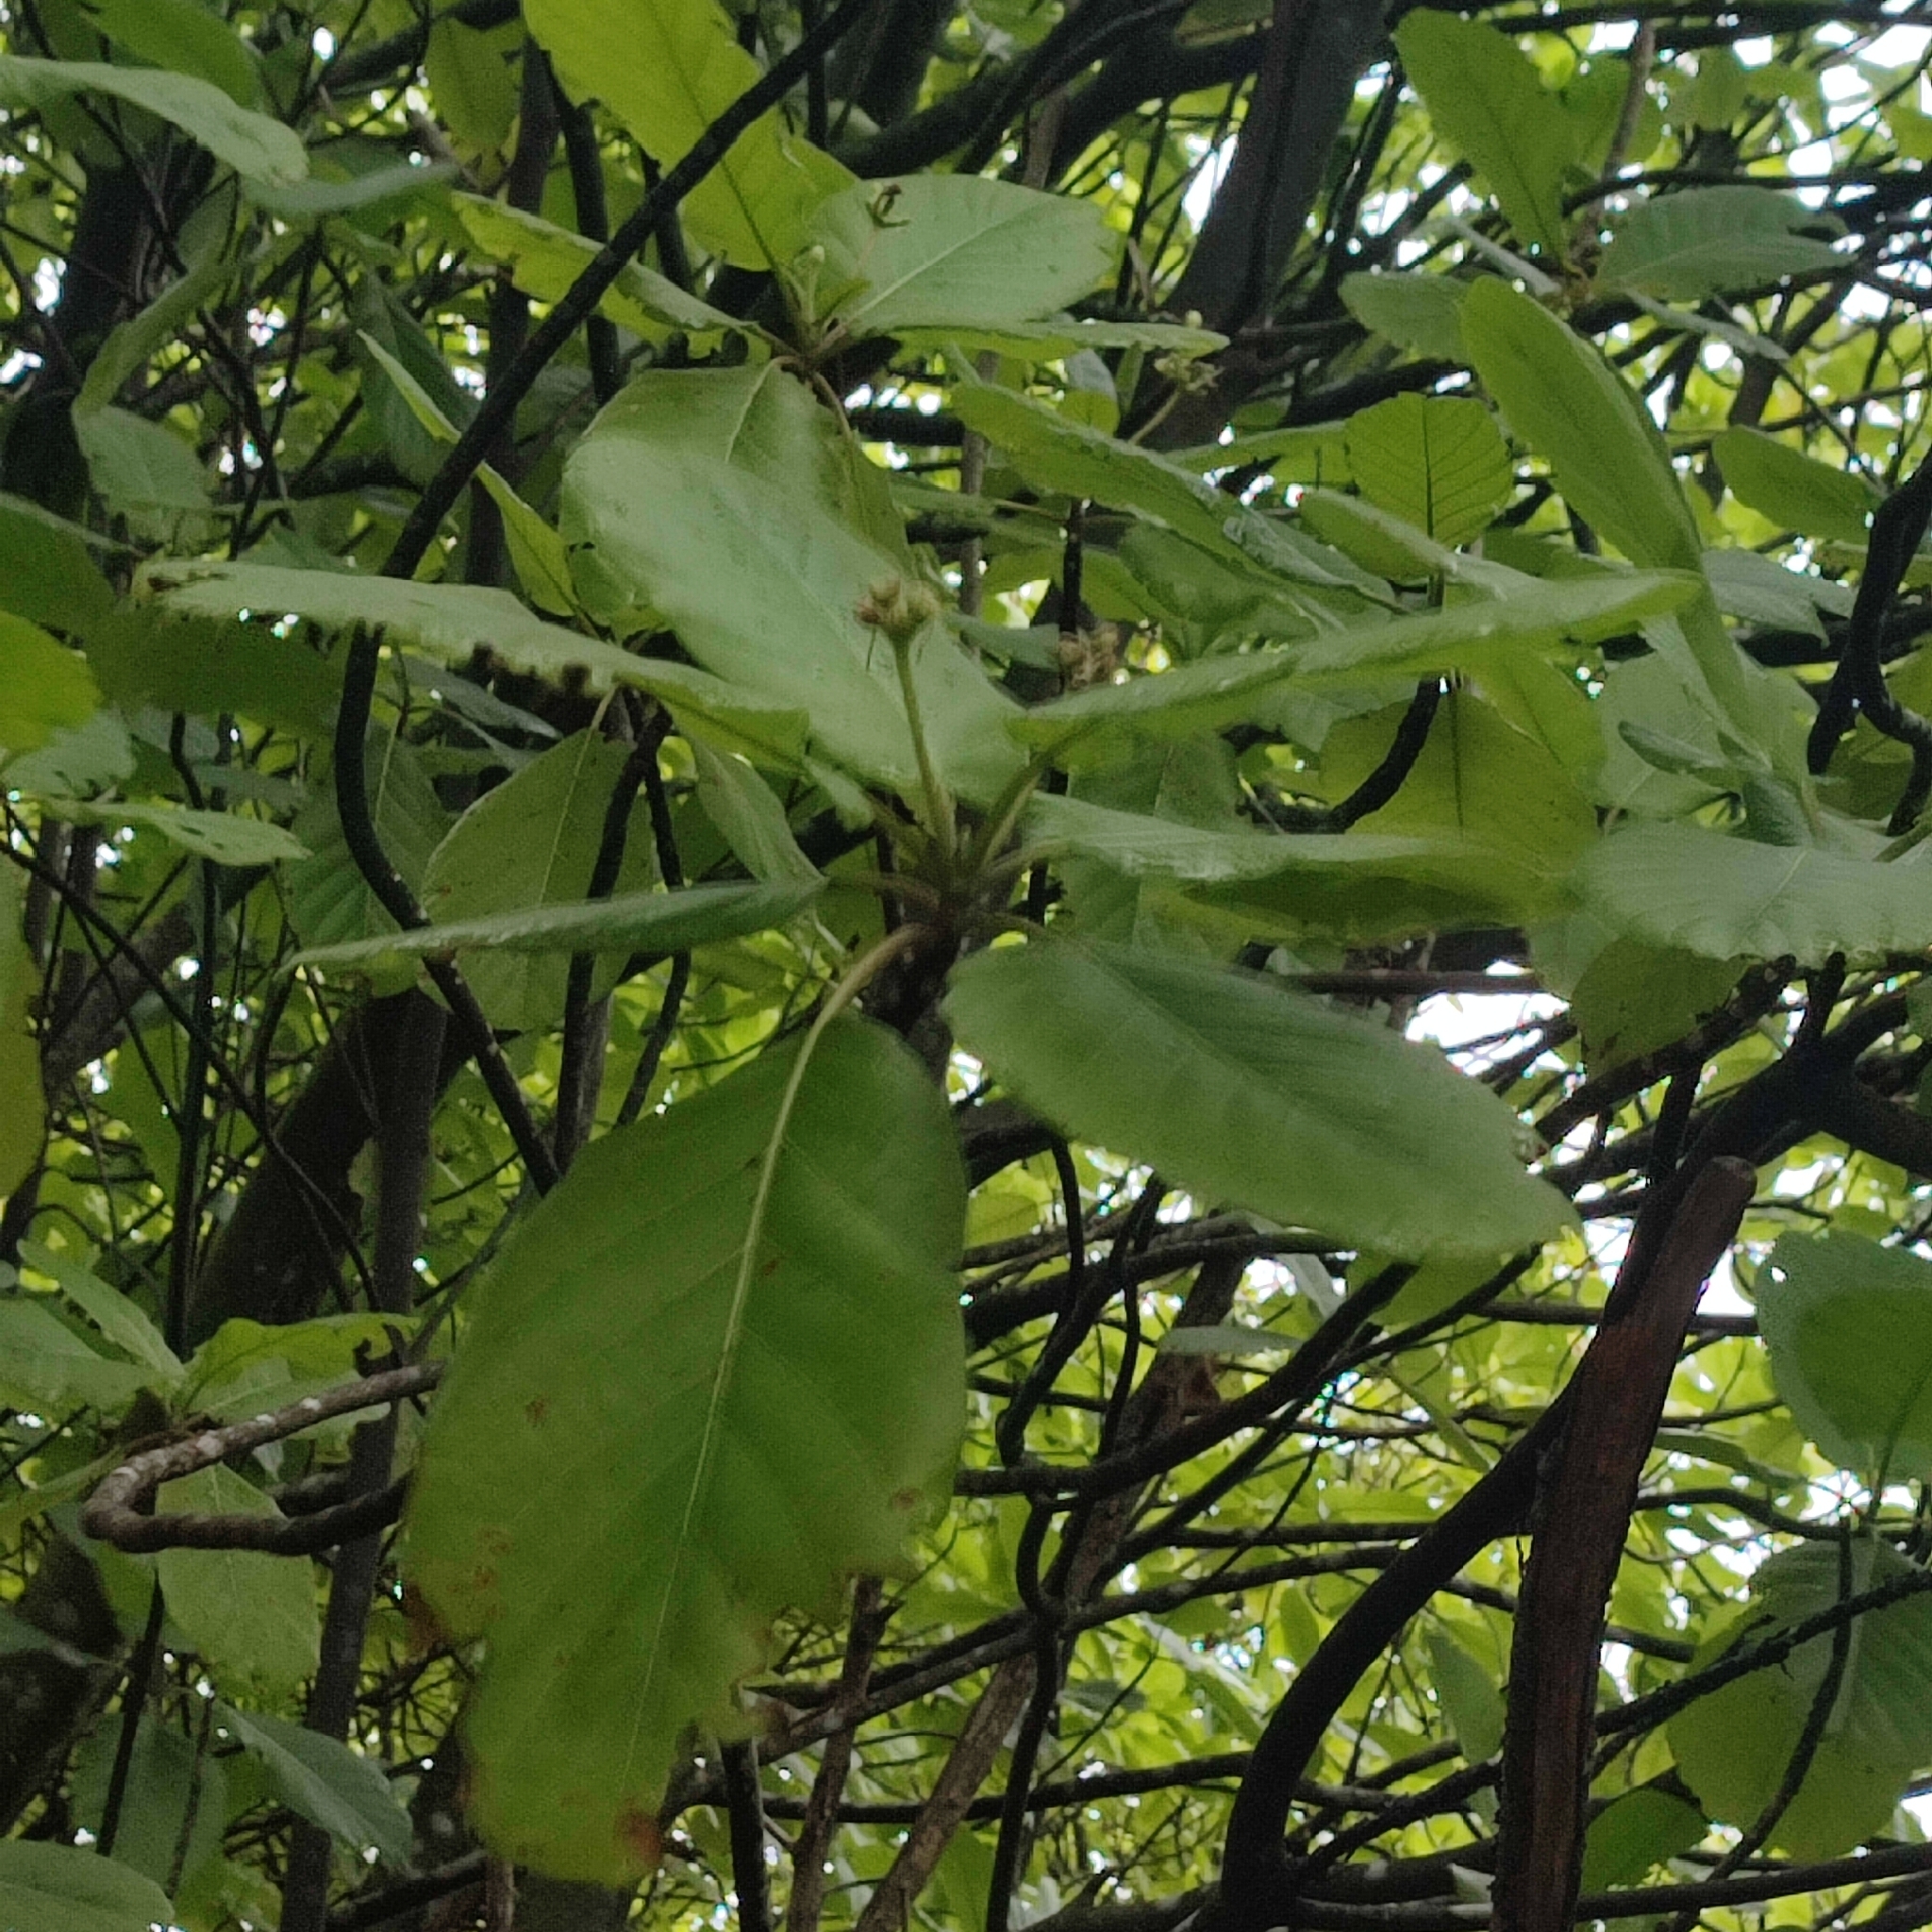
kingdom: Plantae
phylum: Tracheophyta
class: Magnoliopsida
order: Gentianales
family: Rubiaceae
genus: Guettarda
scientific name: Guettarda speciosa
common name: Sea randa
